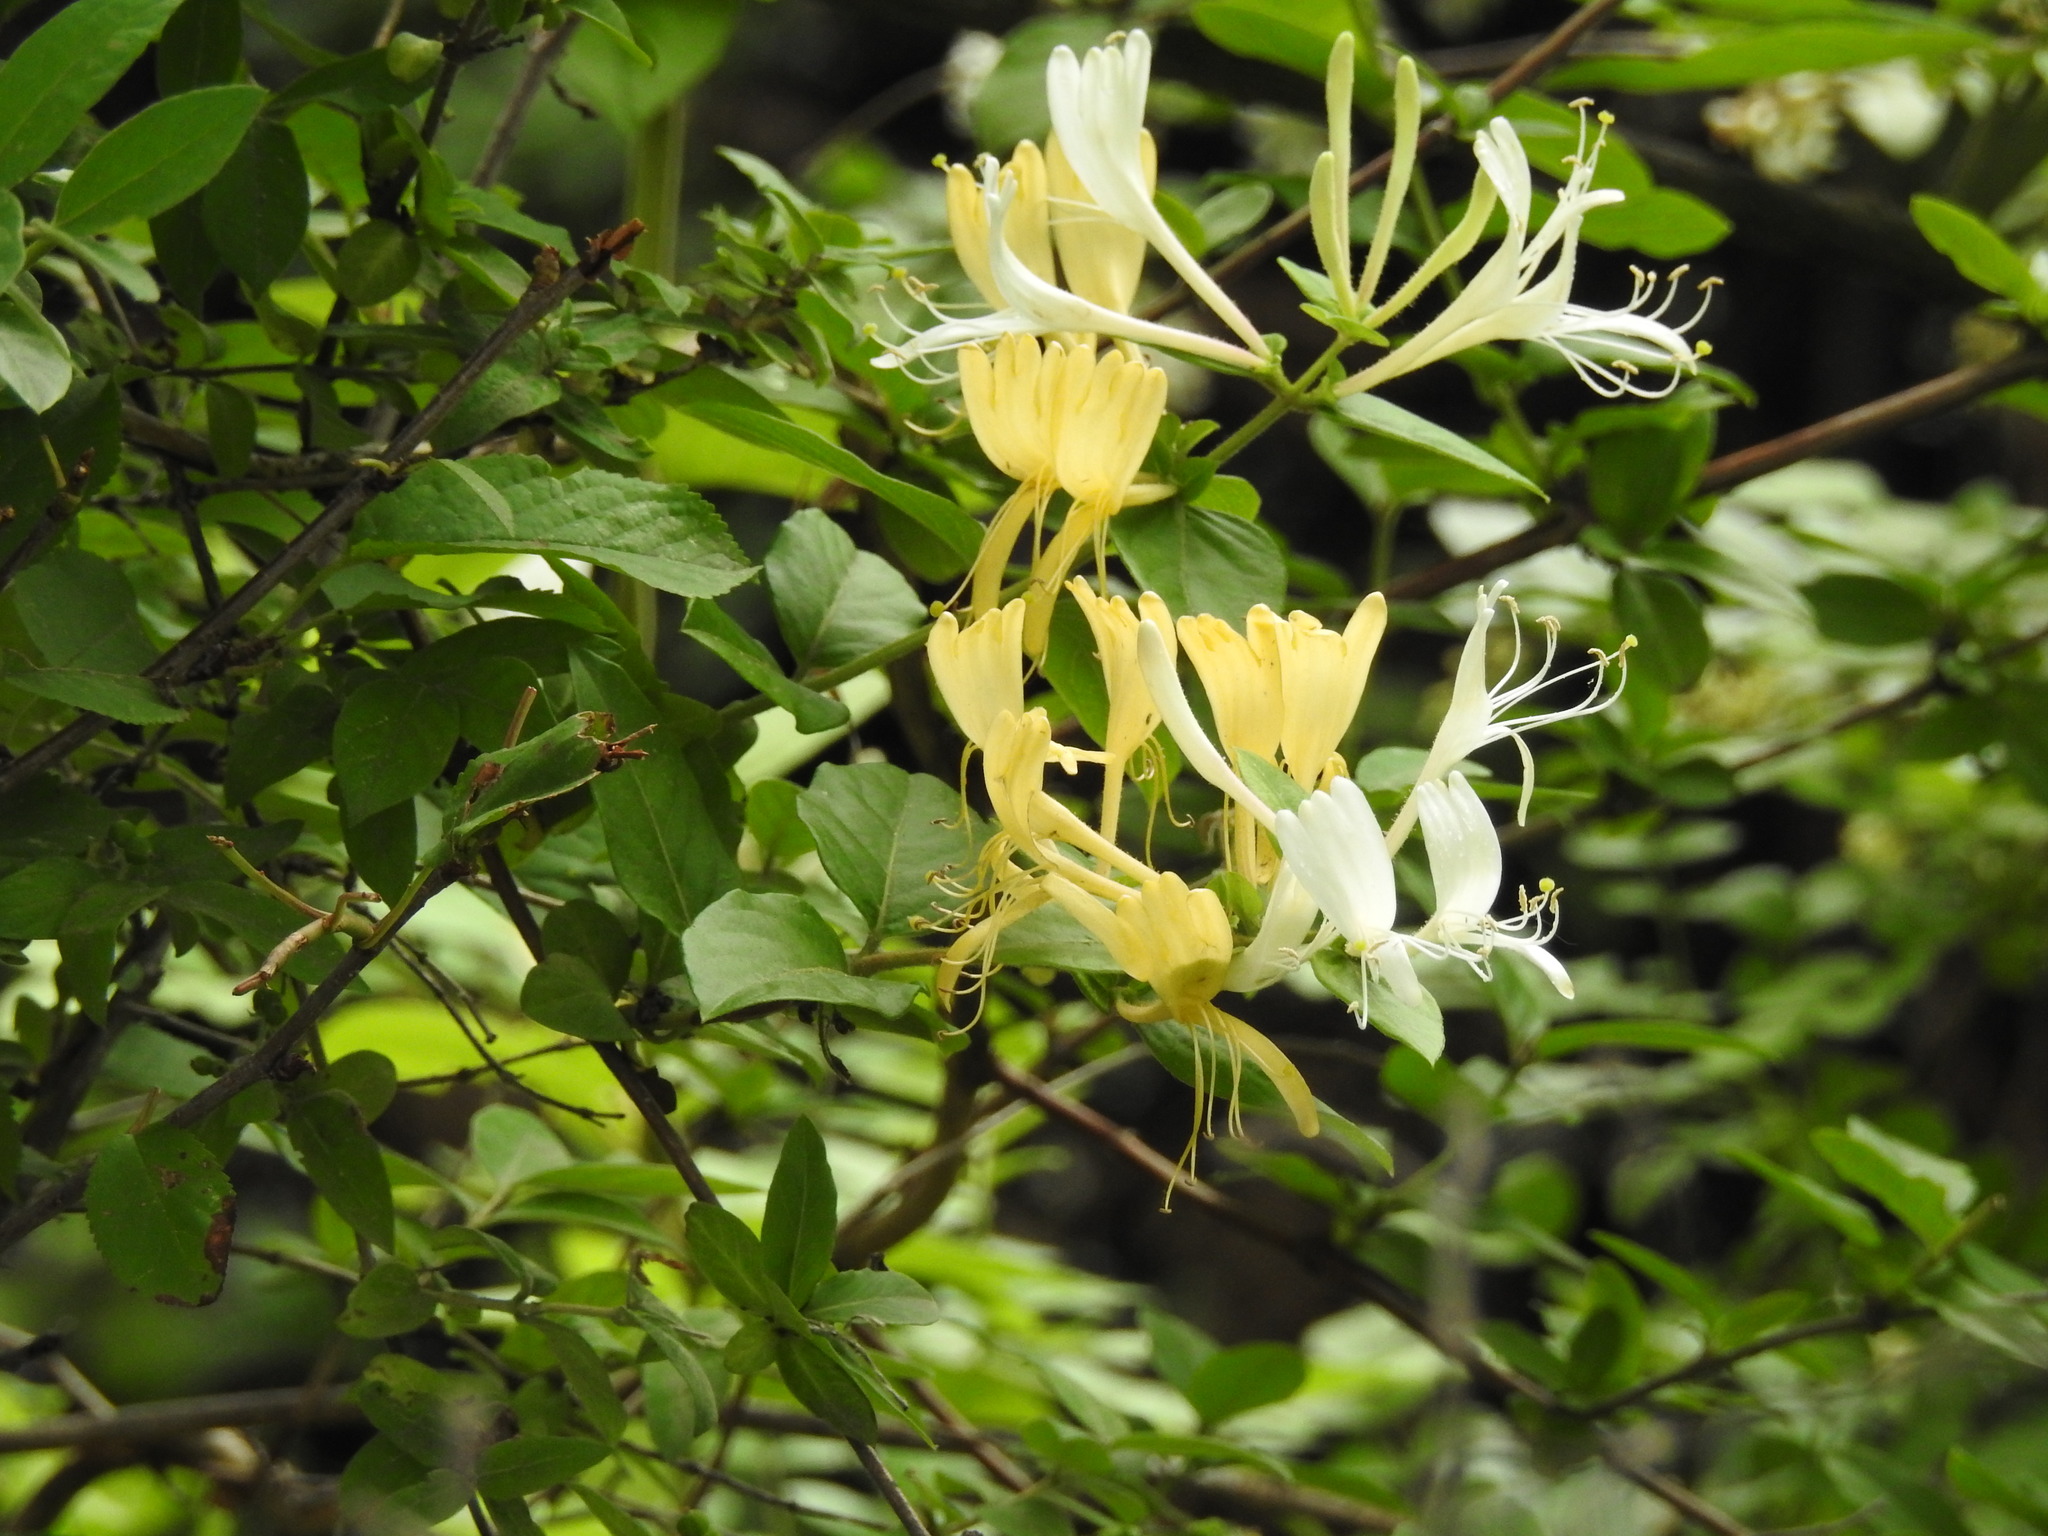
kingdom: Plantae
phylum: Tracheophyta
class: Magnoliopsida
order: Dipsacales
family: Caprifoliaceae
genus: Lonicera
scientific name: Lonicera japonica
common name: Japanese honeysuckle
